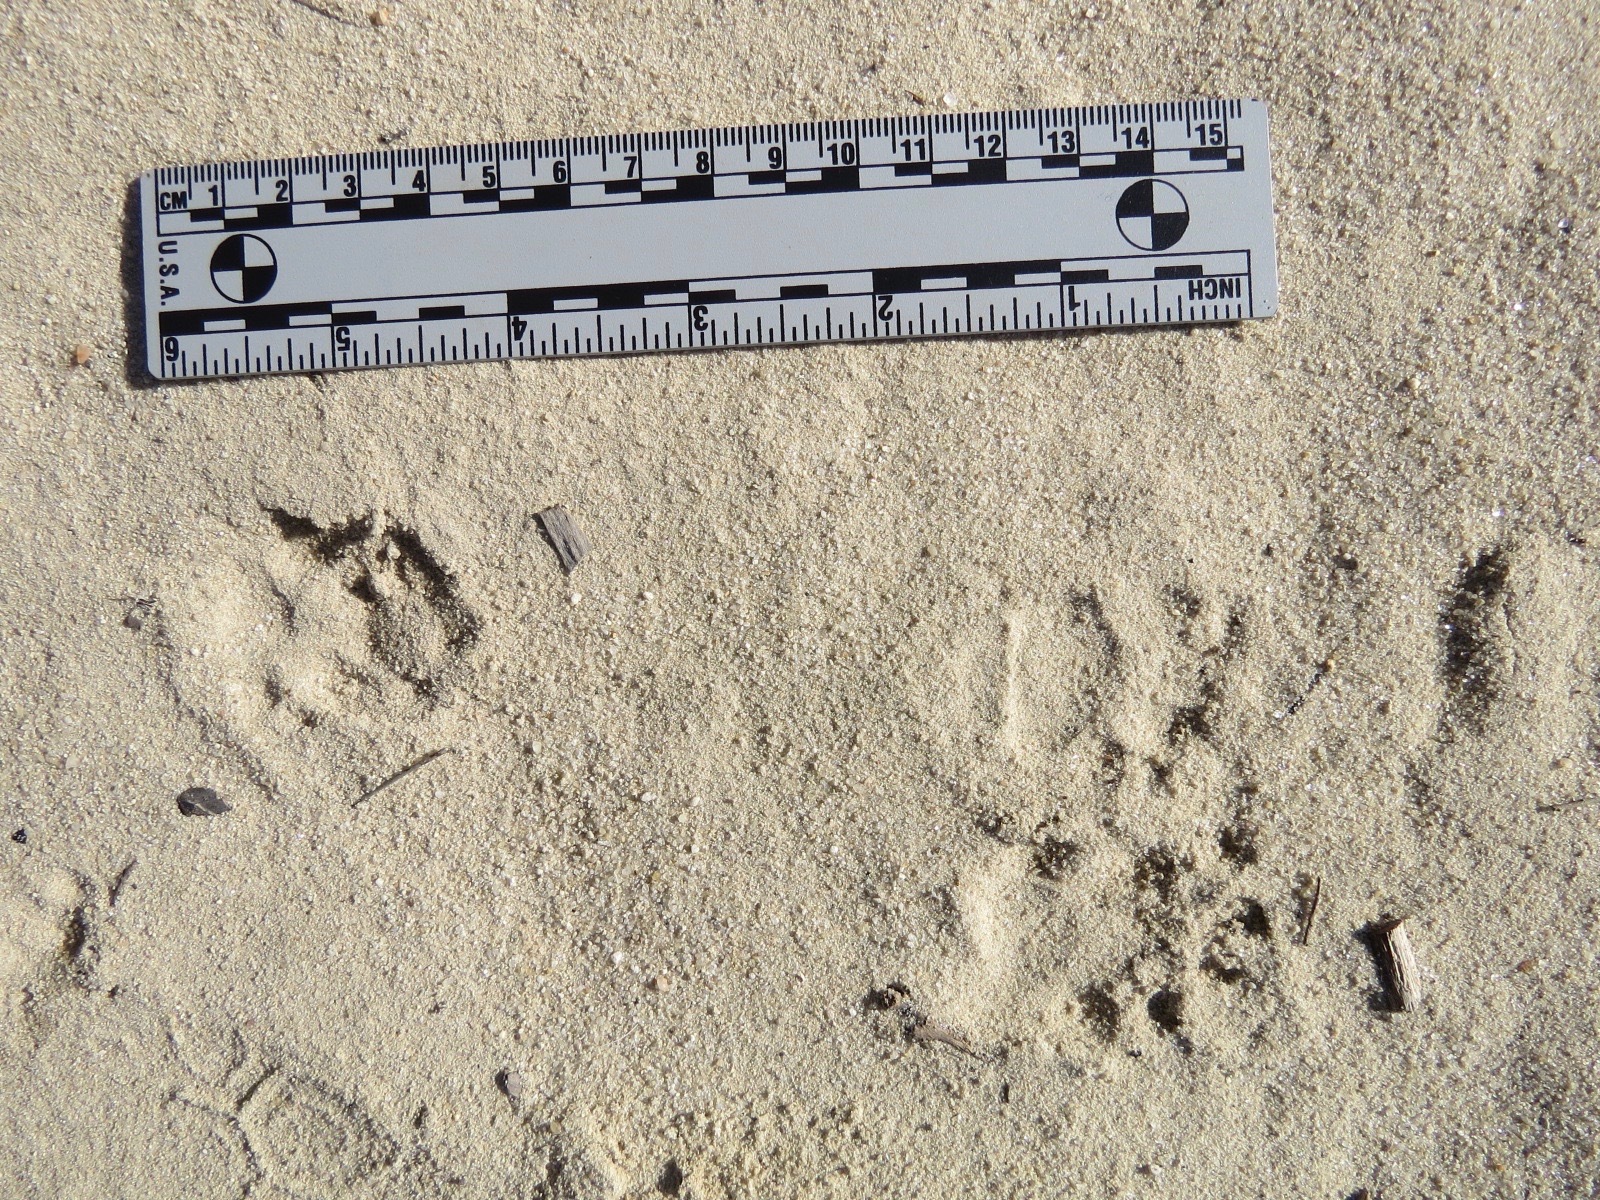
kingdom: Animalia
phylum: Chordata
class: Mammalia
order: Carnivora
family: Mephitidae
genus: Mephitis
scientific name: Mephitis mephitis
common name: Striped skunk
